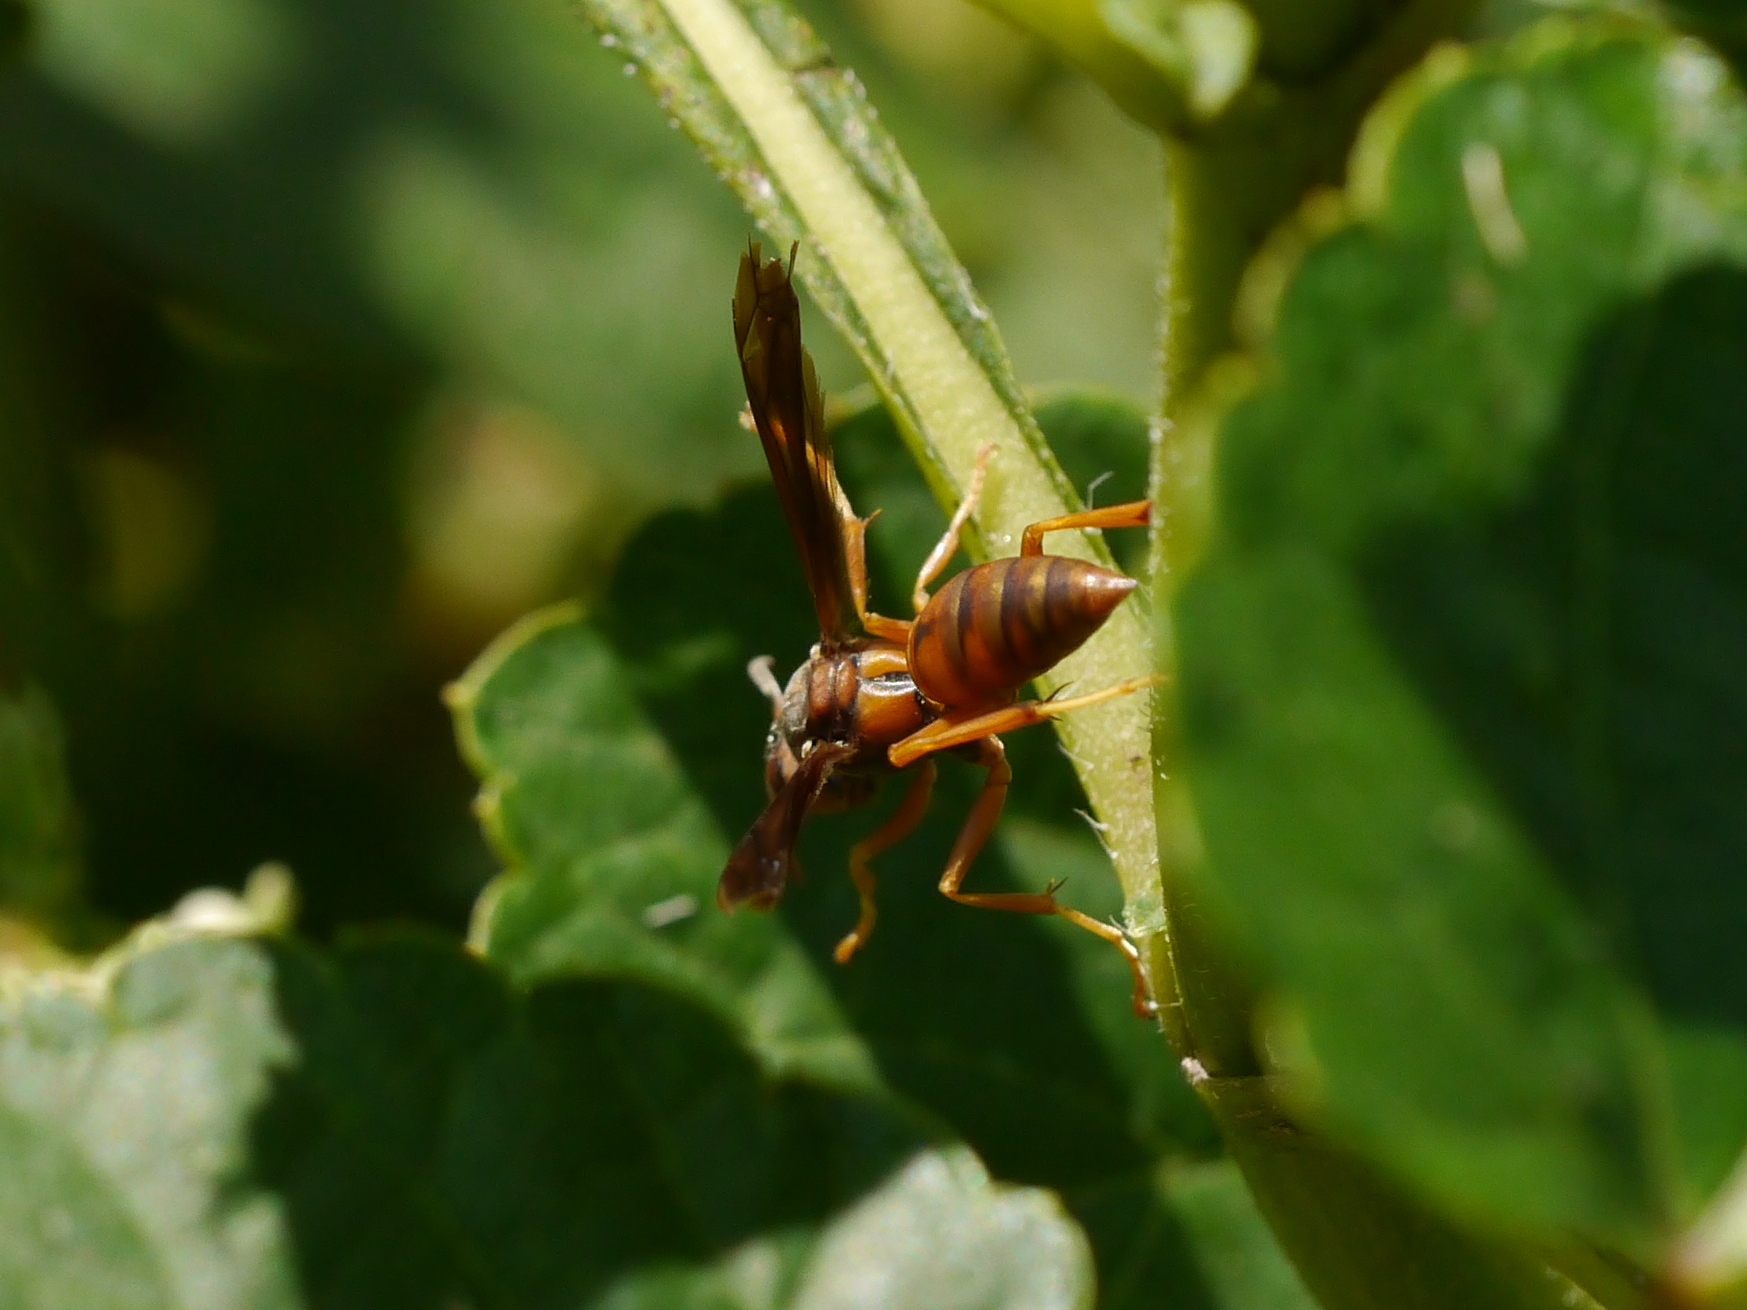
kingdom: Animalia
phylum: Arthropoda
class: Insecta
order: Hymenoptera
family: Eumenidae
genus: Polistes
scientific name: Polistes carolina
